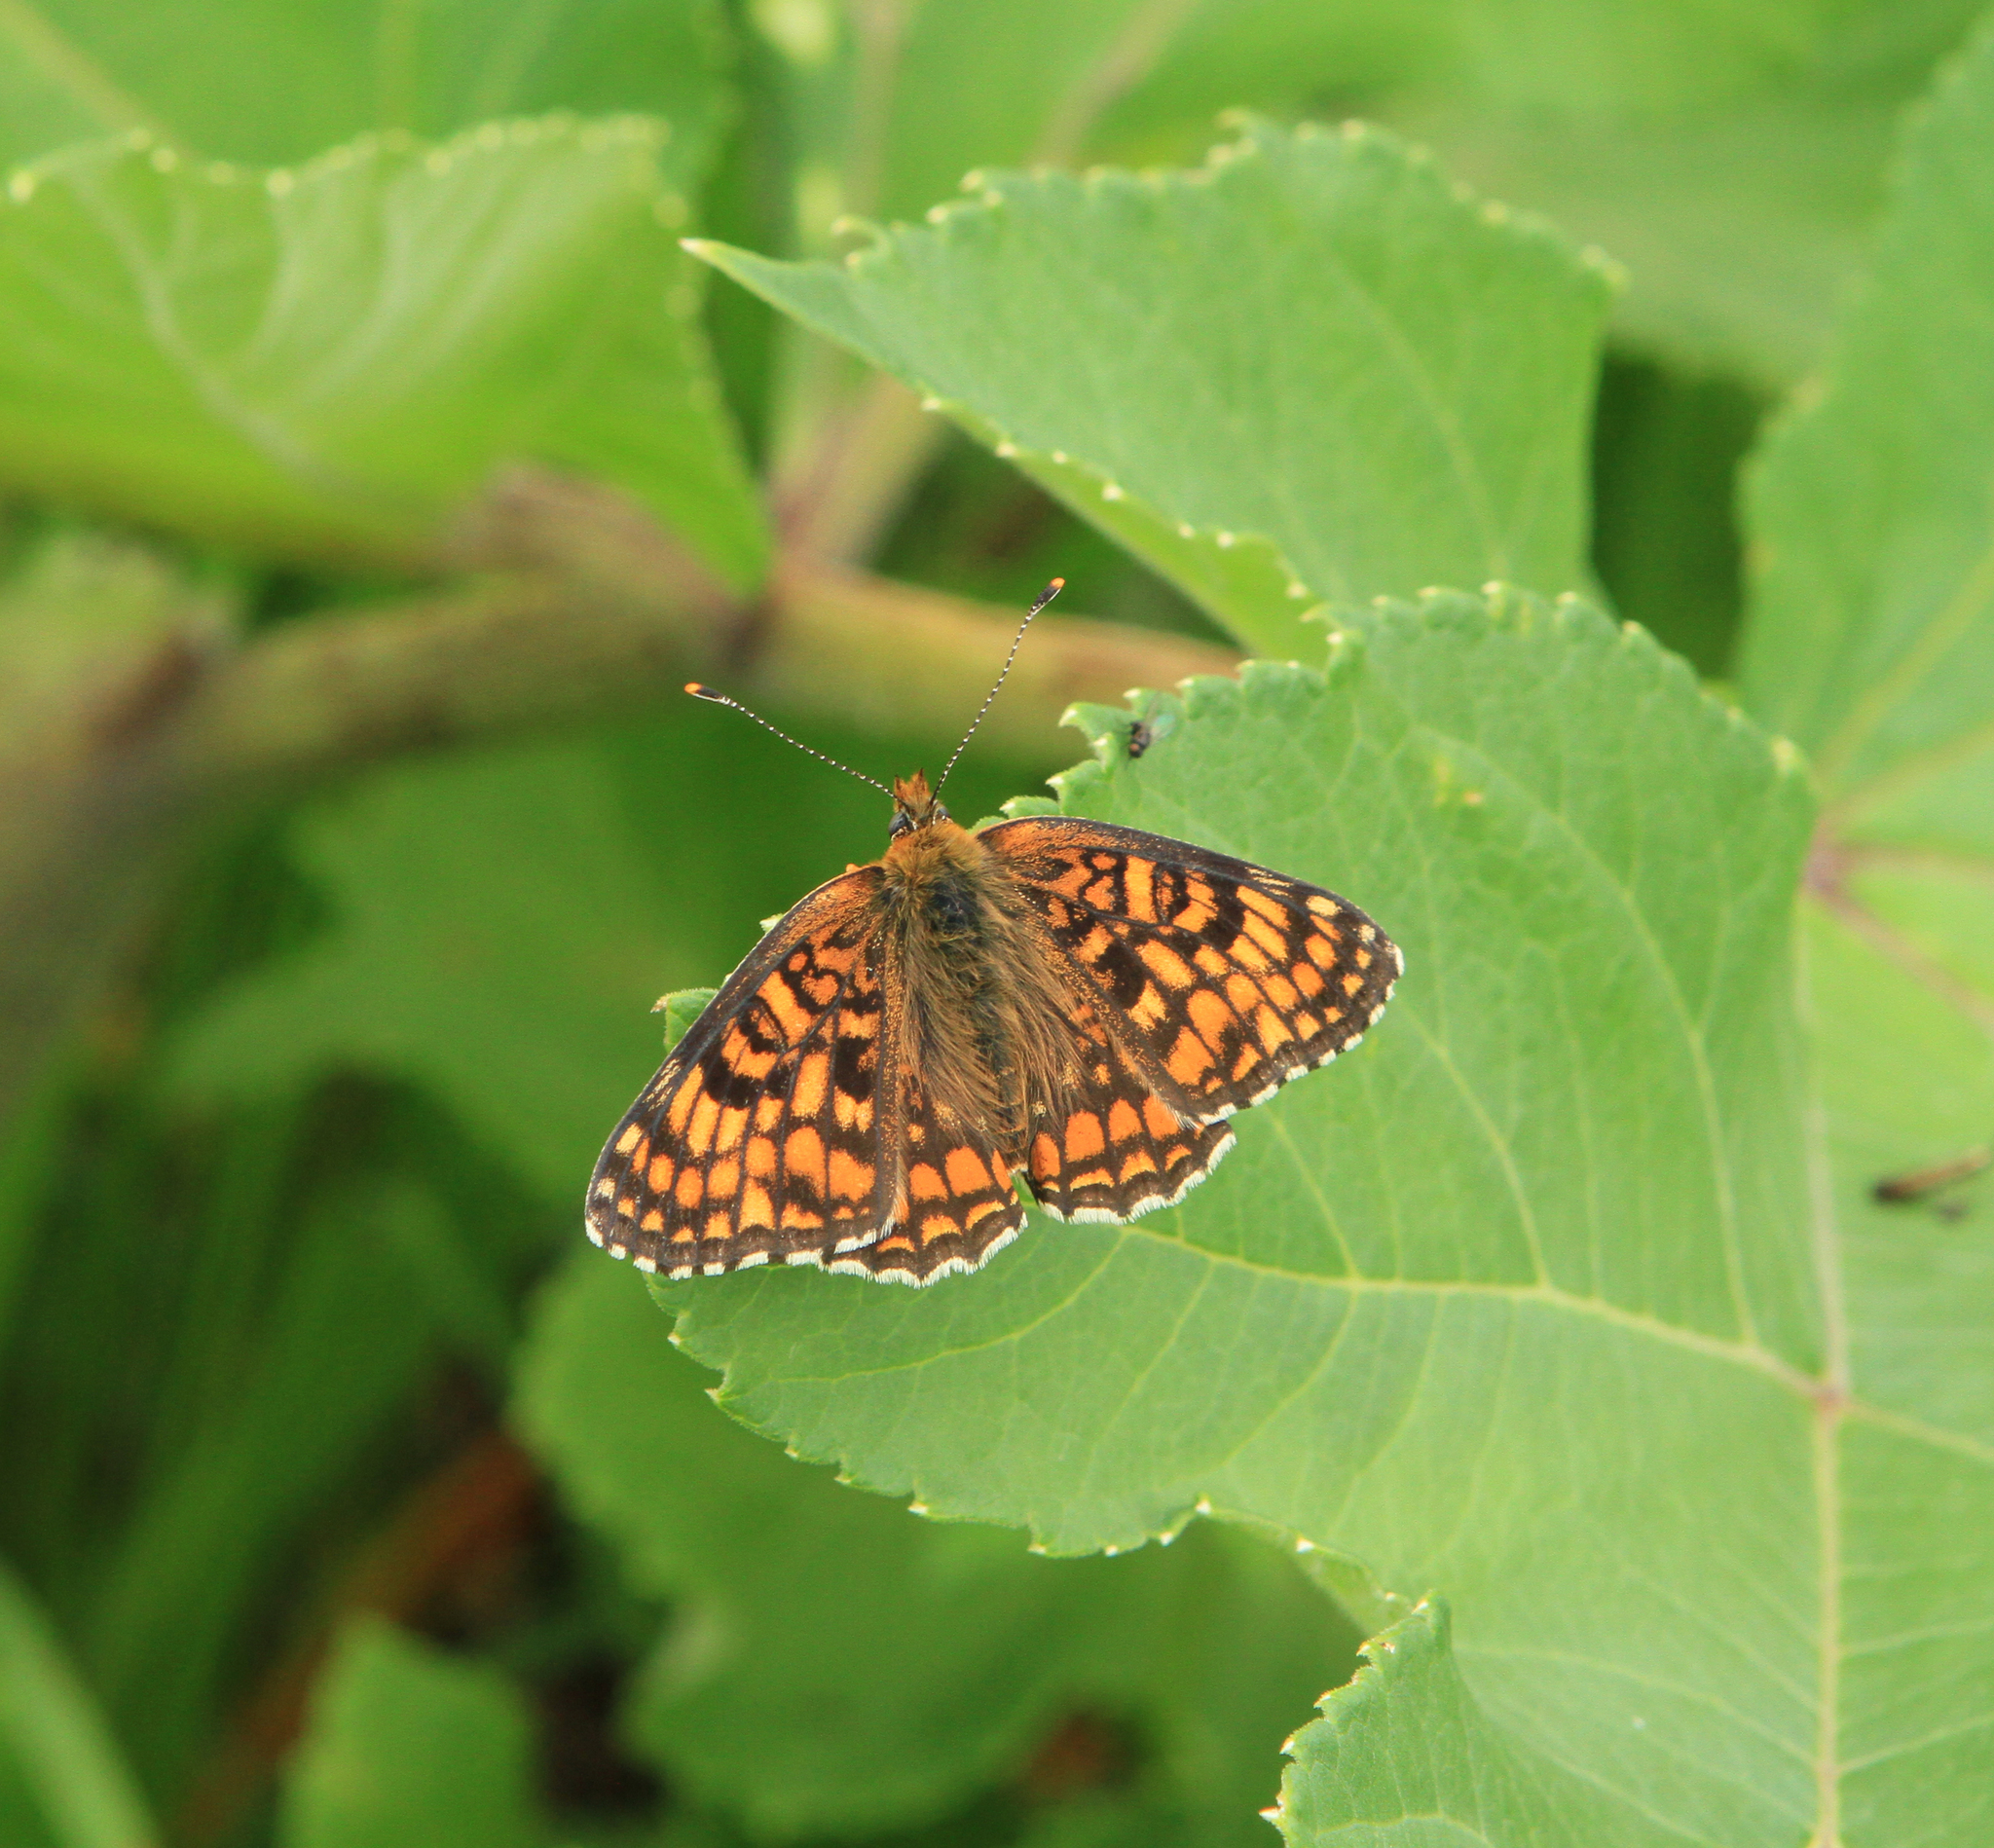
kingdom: Animalia
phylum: Arthropoda
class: Insecta
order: Lepidoptera
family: Nymphalidae
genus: Melitaea
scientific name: Melitaea phoebe
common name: Knapweed fritillary
